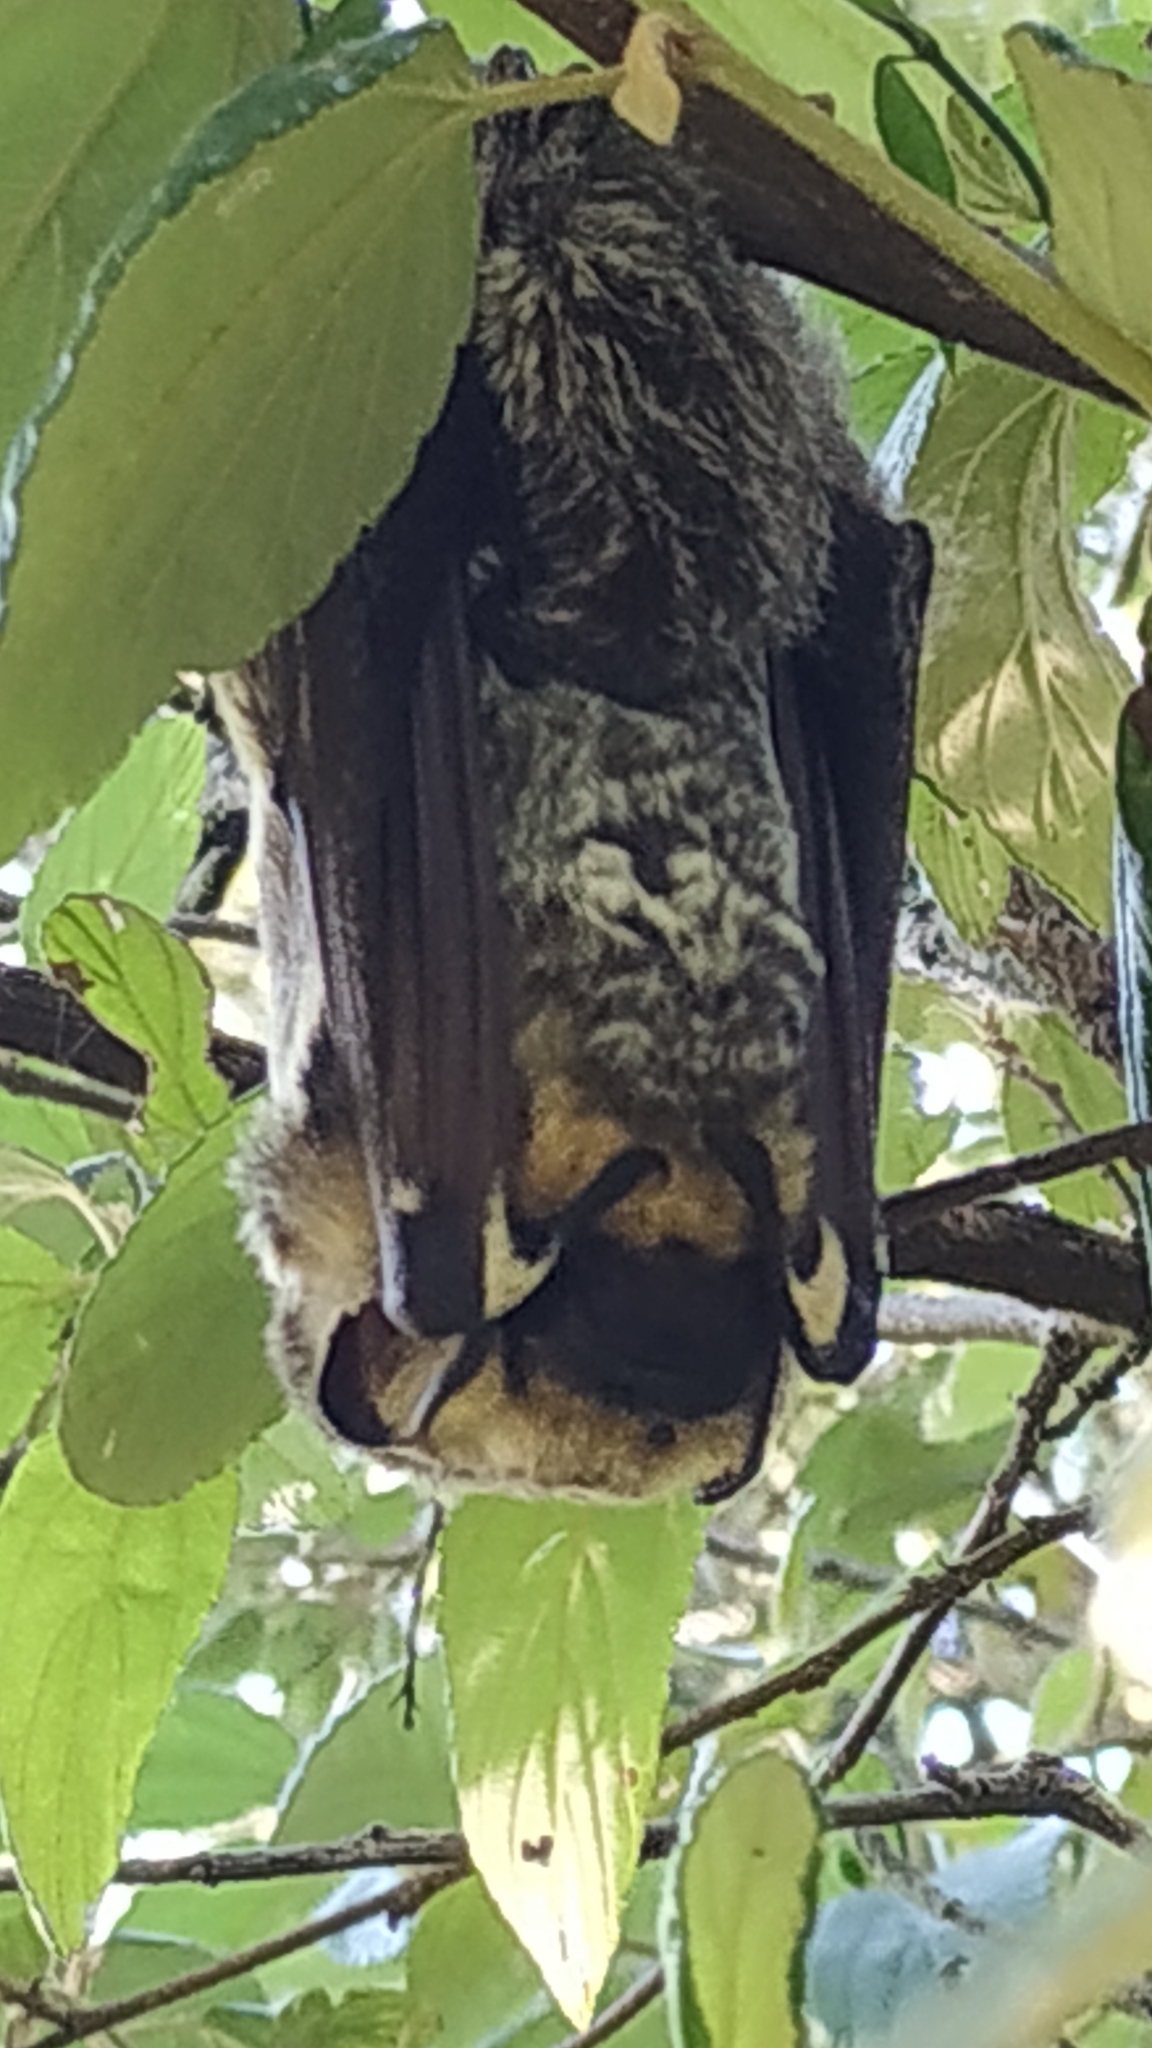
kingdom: Animalia
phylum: Chordata
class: Mammalia
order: Chiroptera
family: Vespertilionidae
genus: Aeorestes
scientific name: Aeorestes cinereus
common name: North american hoary bat
